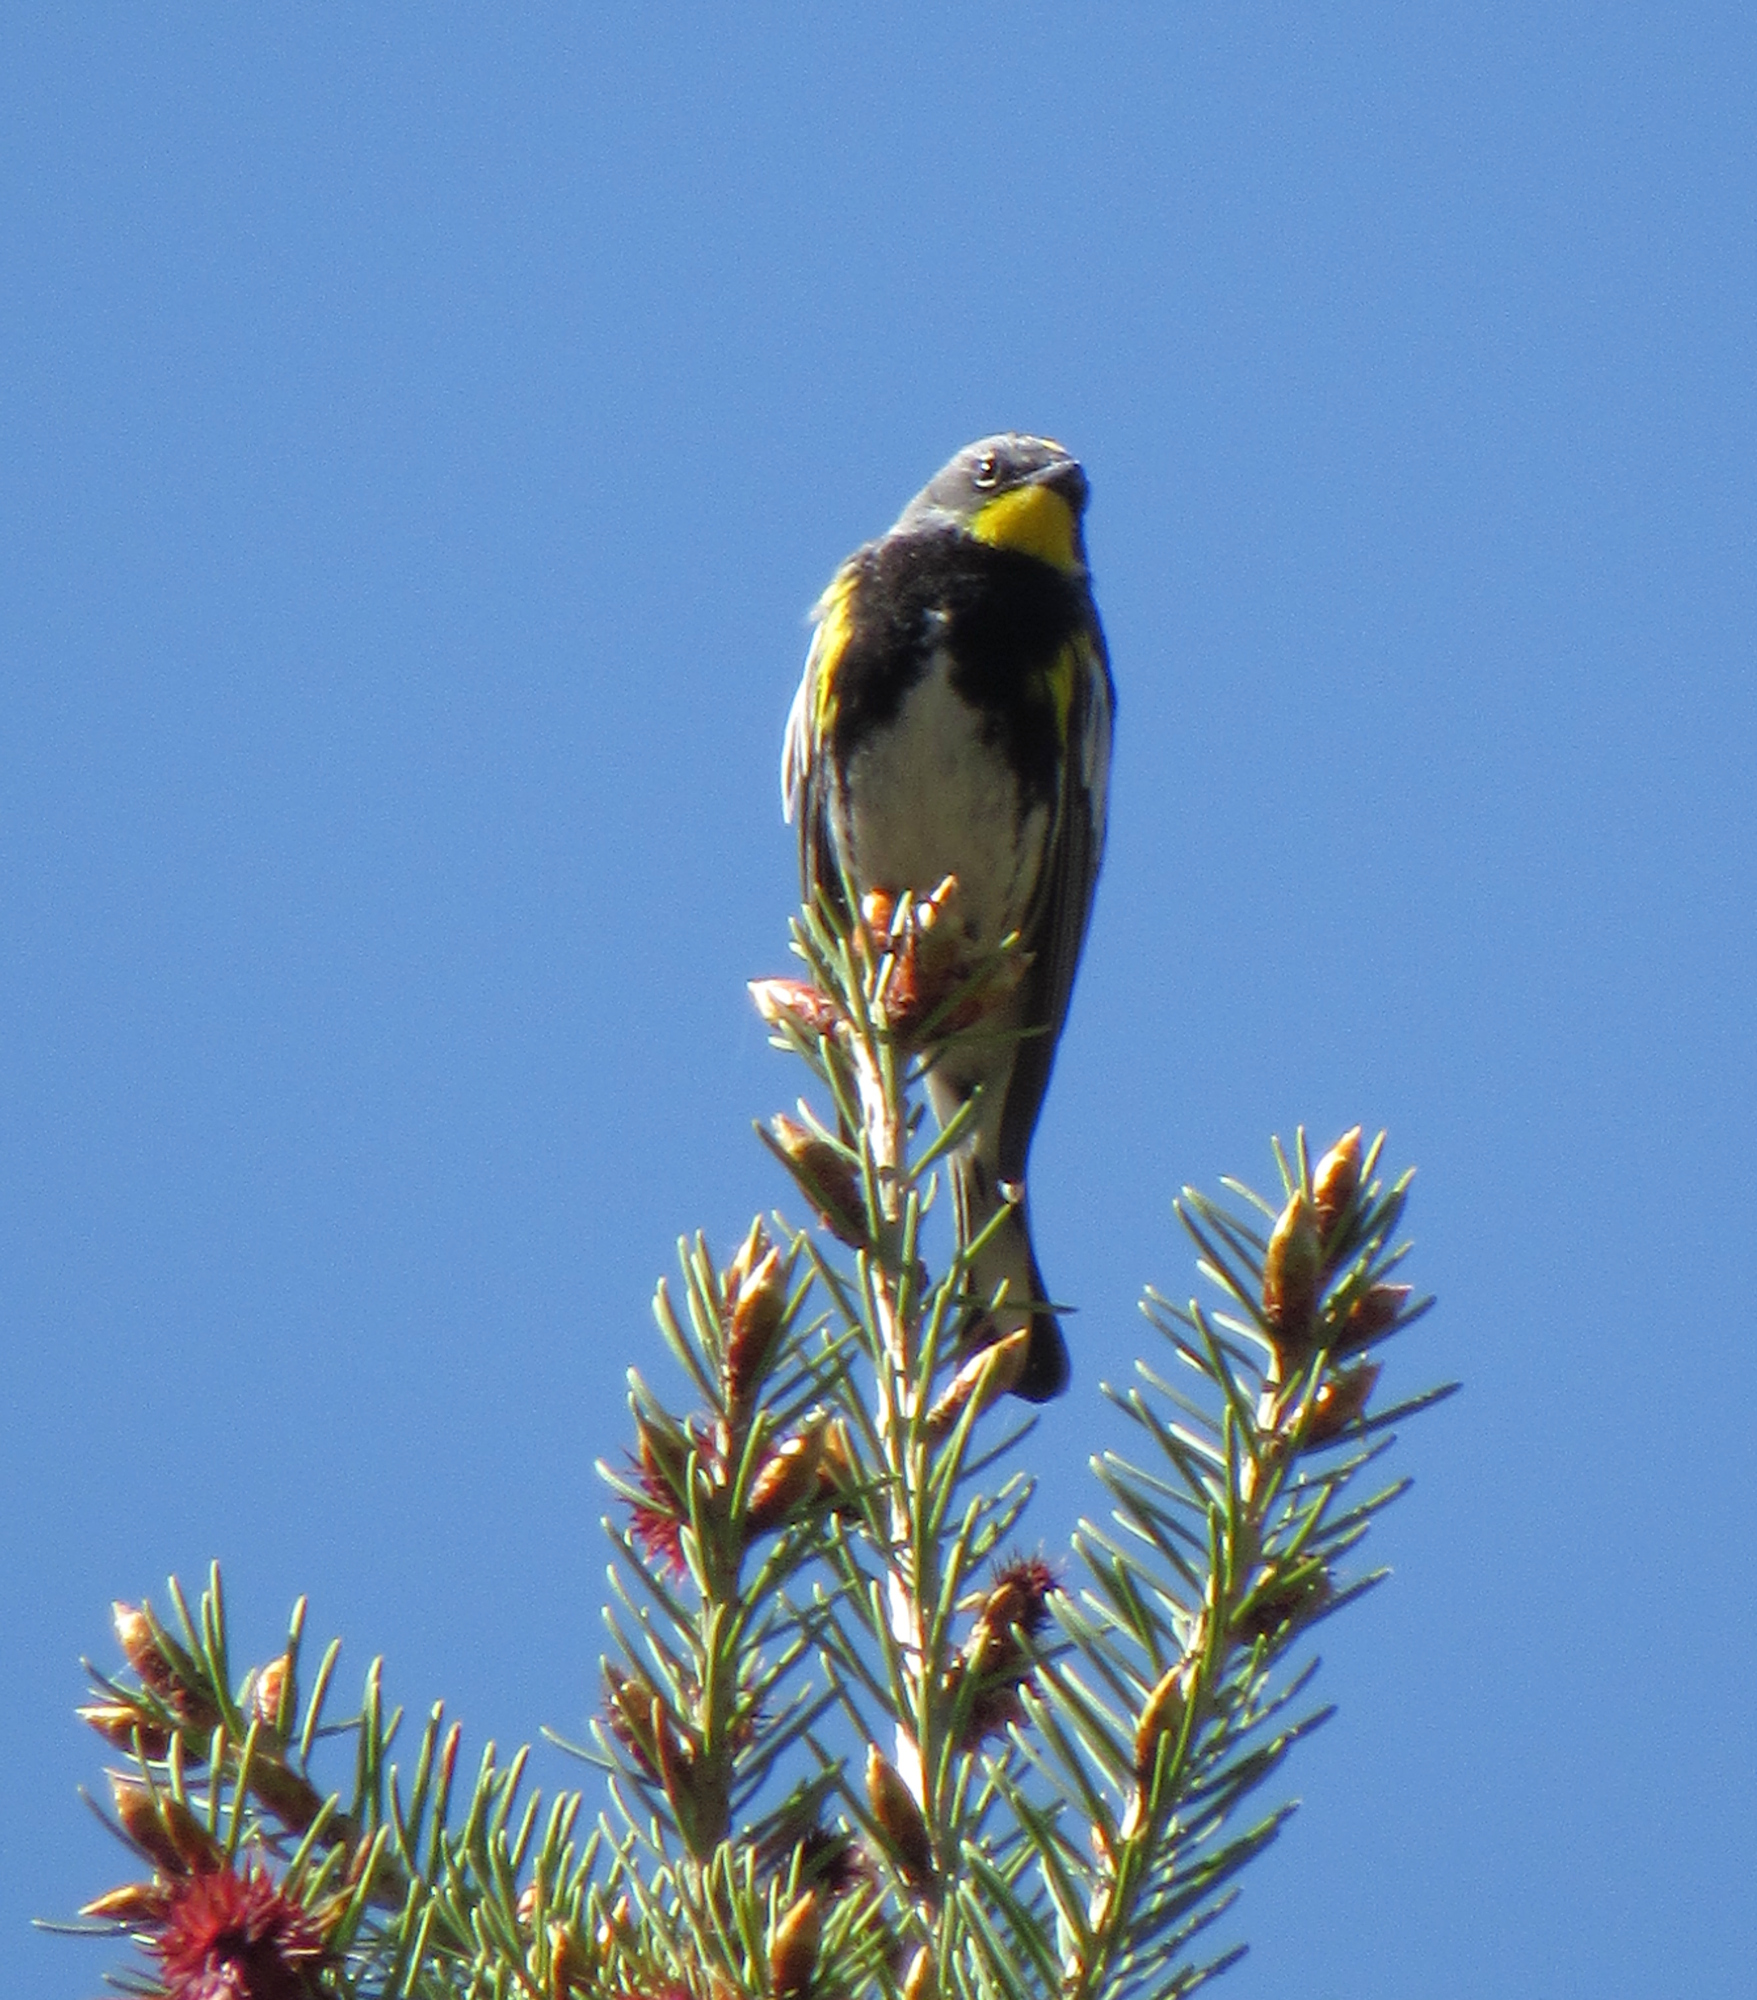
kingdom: Animalia
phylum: Chordata
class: Aves
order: Passeriformes
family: Parulidae
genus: Setophaga
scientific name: Setophaga coronata
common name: Myrtle warbler
